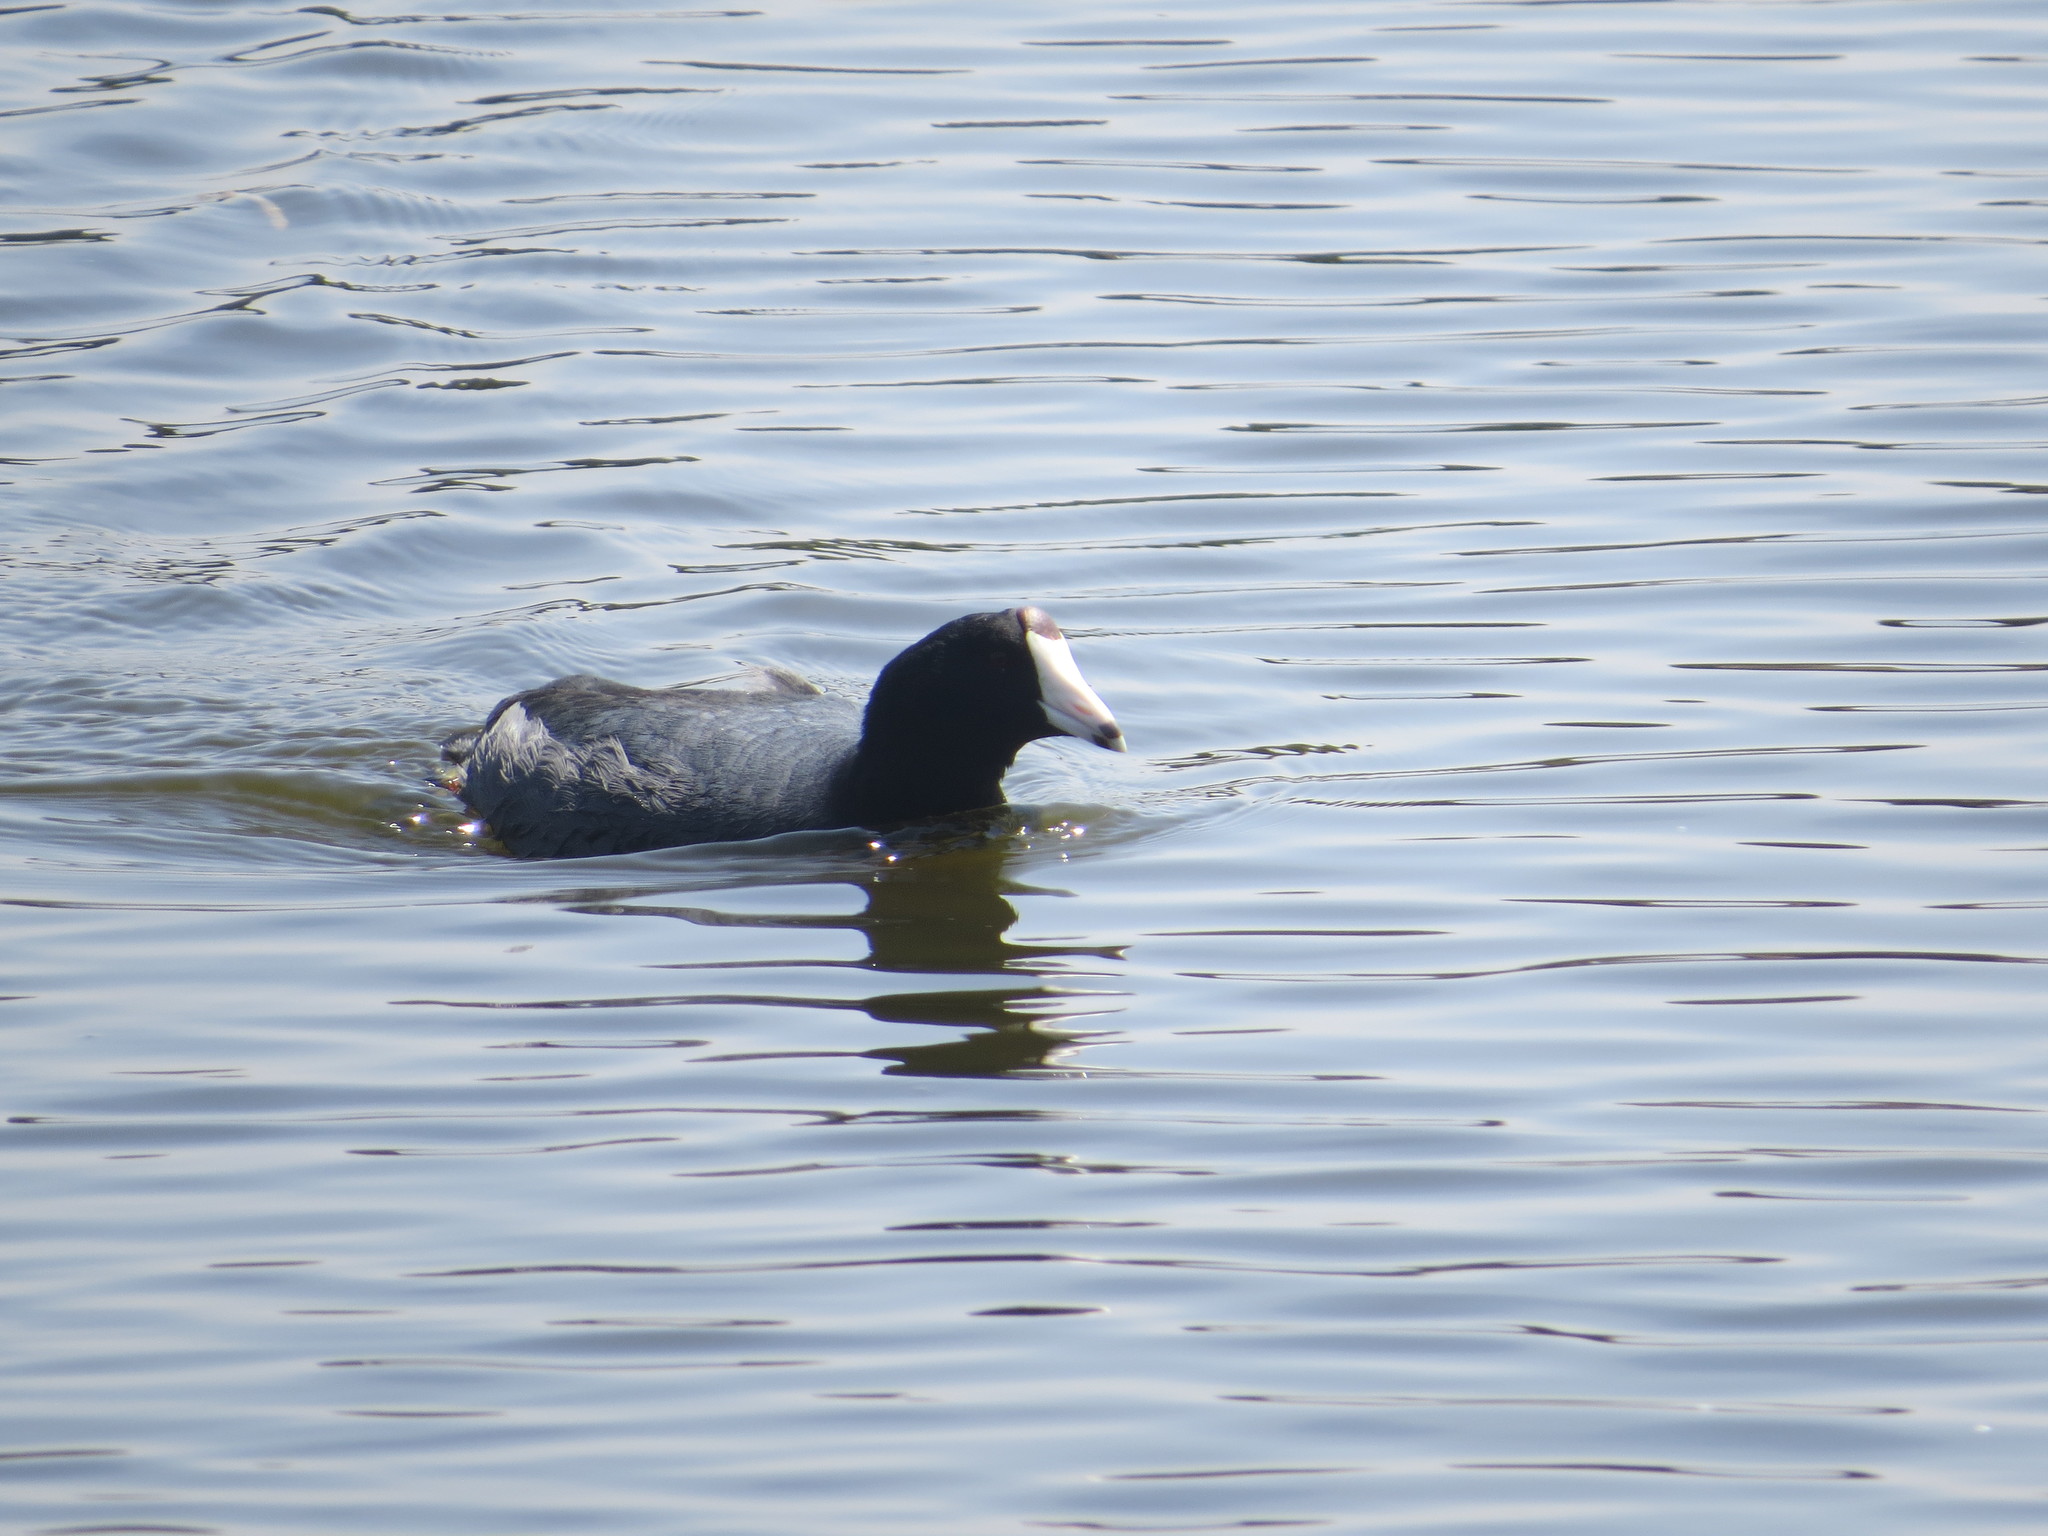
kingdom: Animalia
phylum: Chordata
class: Aves
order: Gruiformes
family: Rallidae
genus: Fulica
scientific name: Fulica americana
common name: American coot
